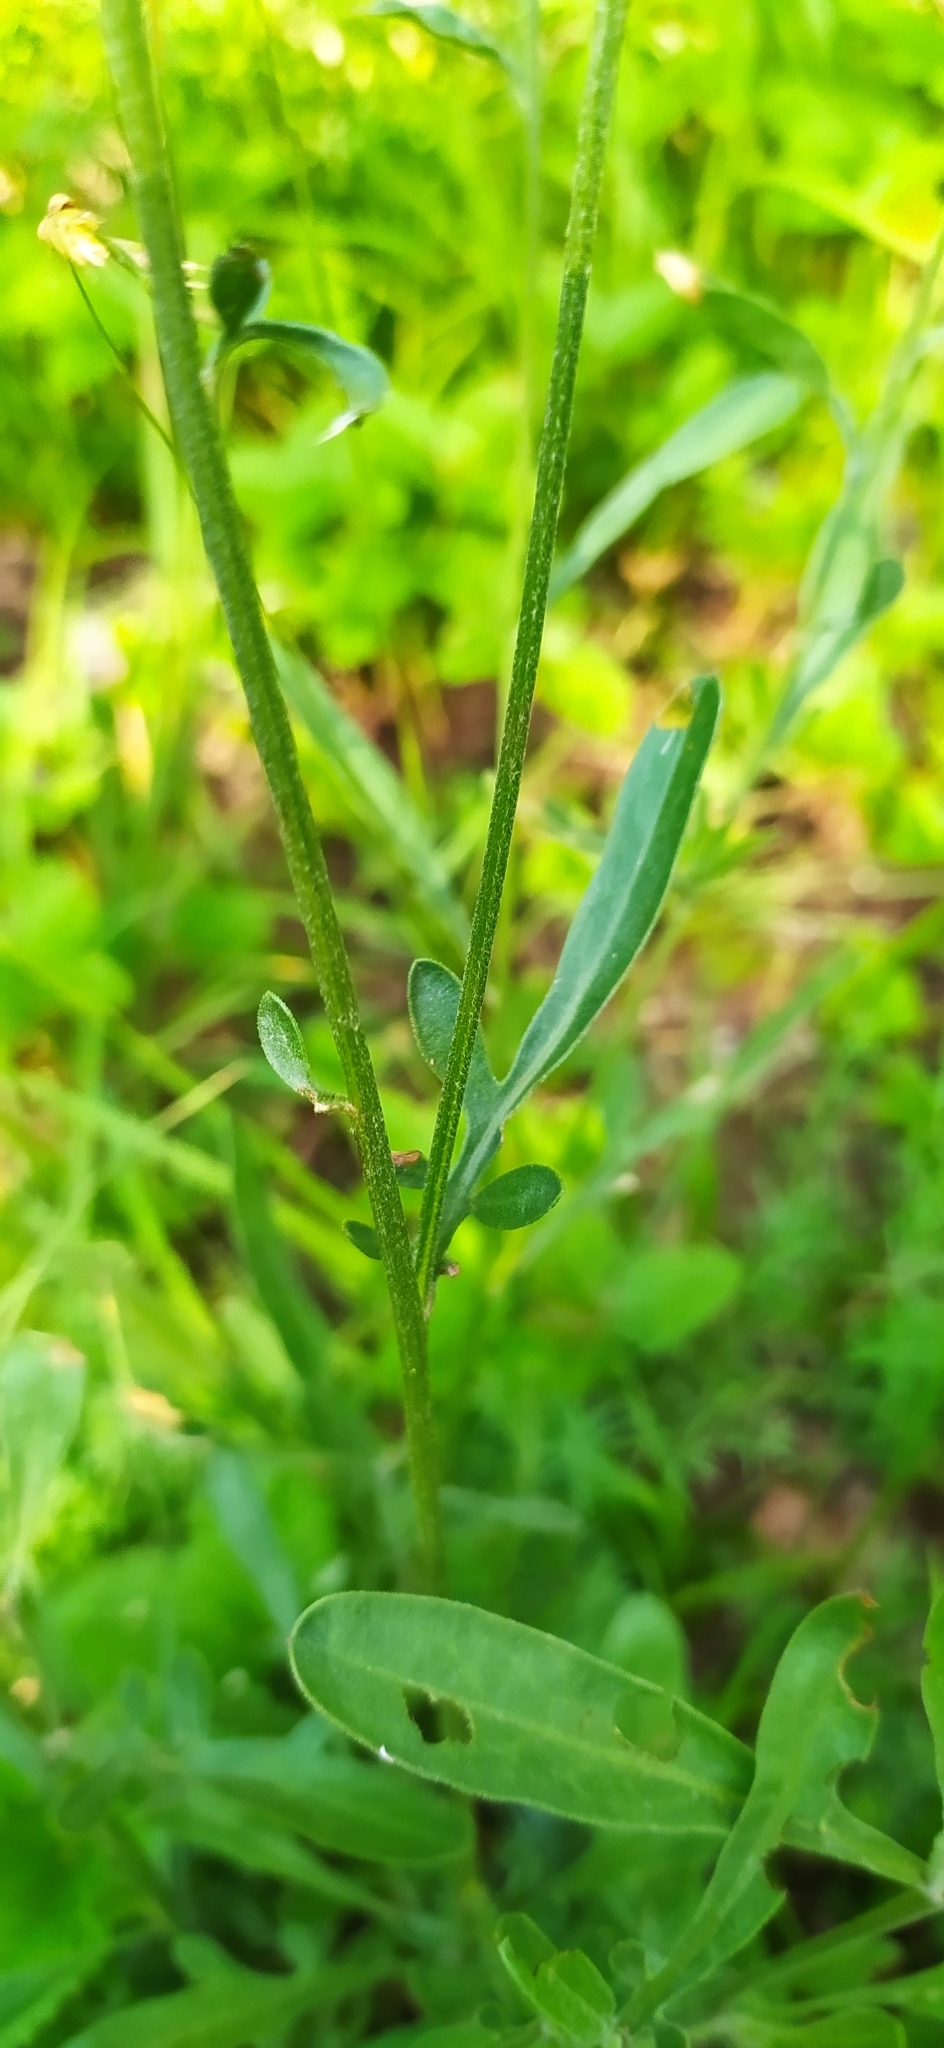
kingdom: Plantae
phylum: Tracheophyta
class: Magnoliopsida
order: Asterales
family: Asteraceae
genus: Centaurea
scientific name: Centaurea orientalis
